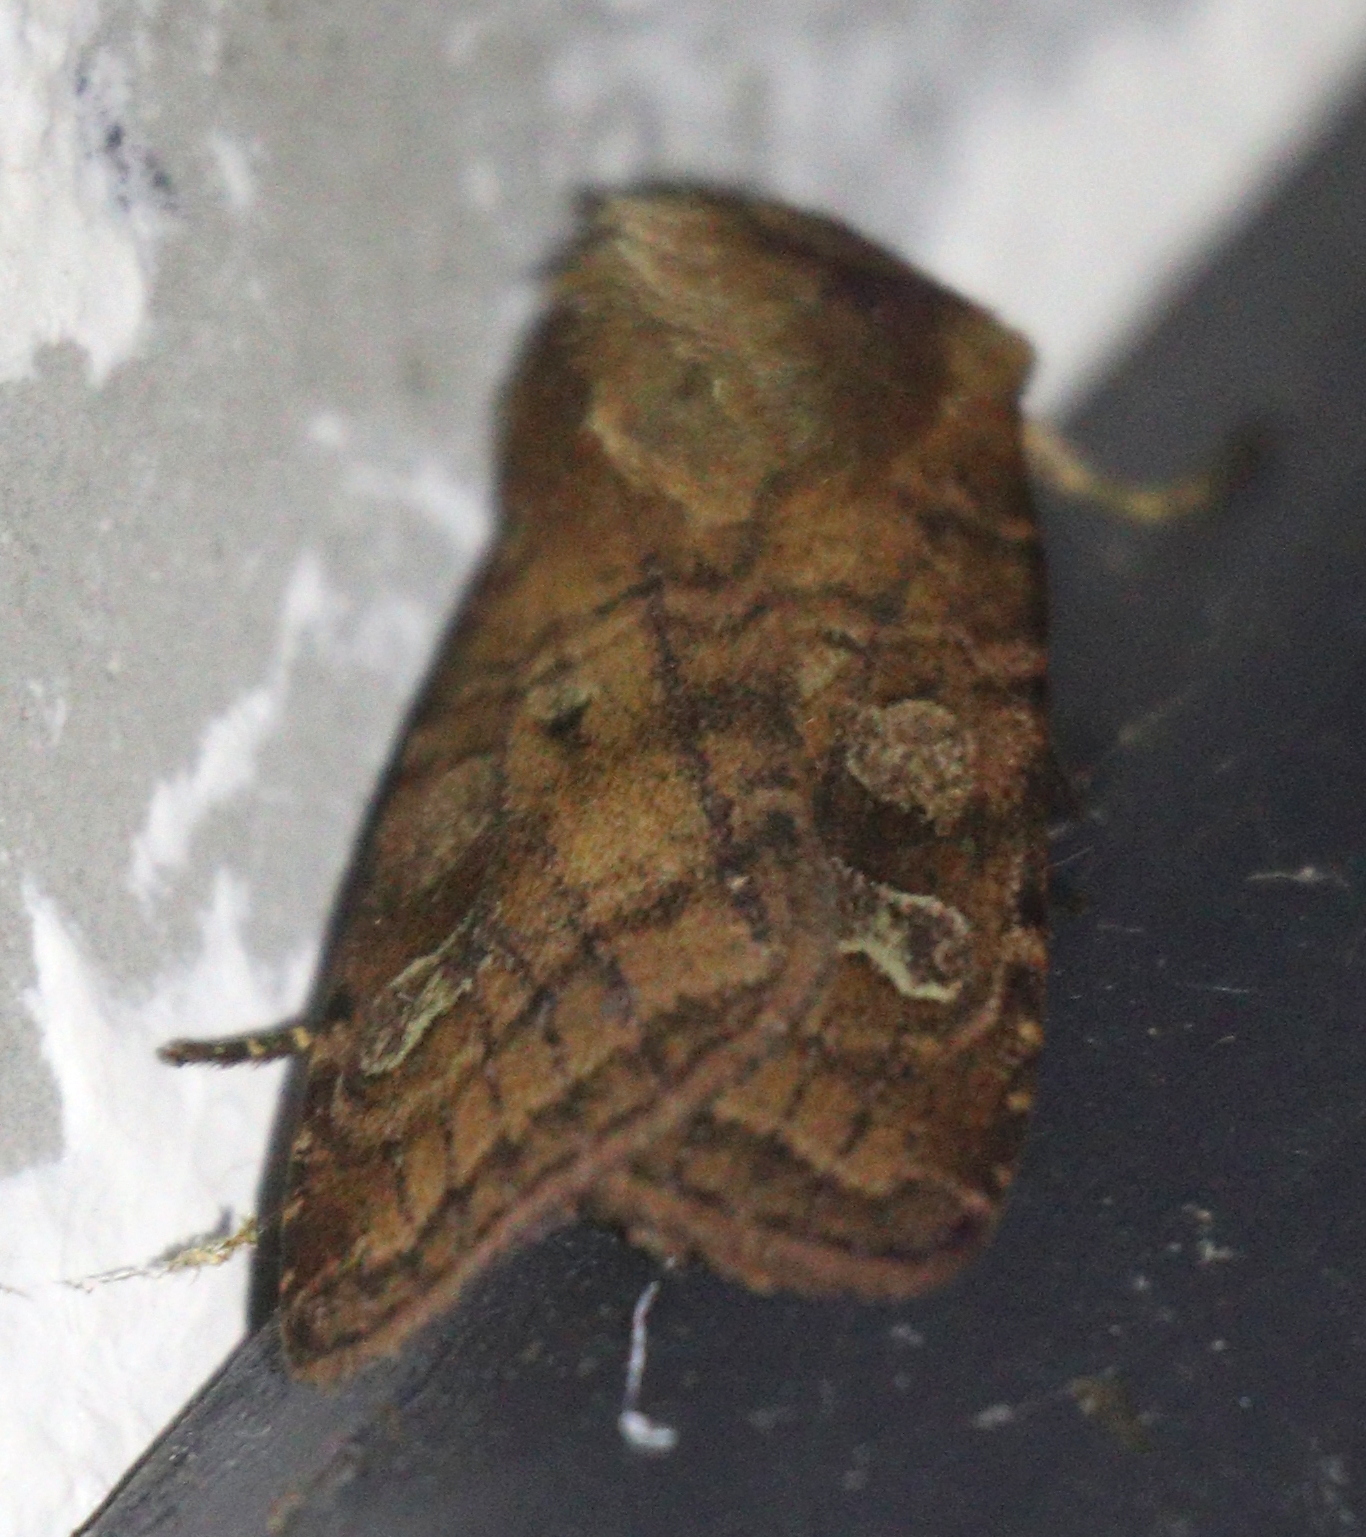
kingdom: Animalia
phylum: Arthropoda
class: Insecta
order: Lepidoptera
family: Noctuidae
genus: Diarsia
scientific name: Diarsia rubi
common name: Small square-spot
